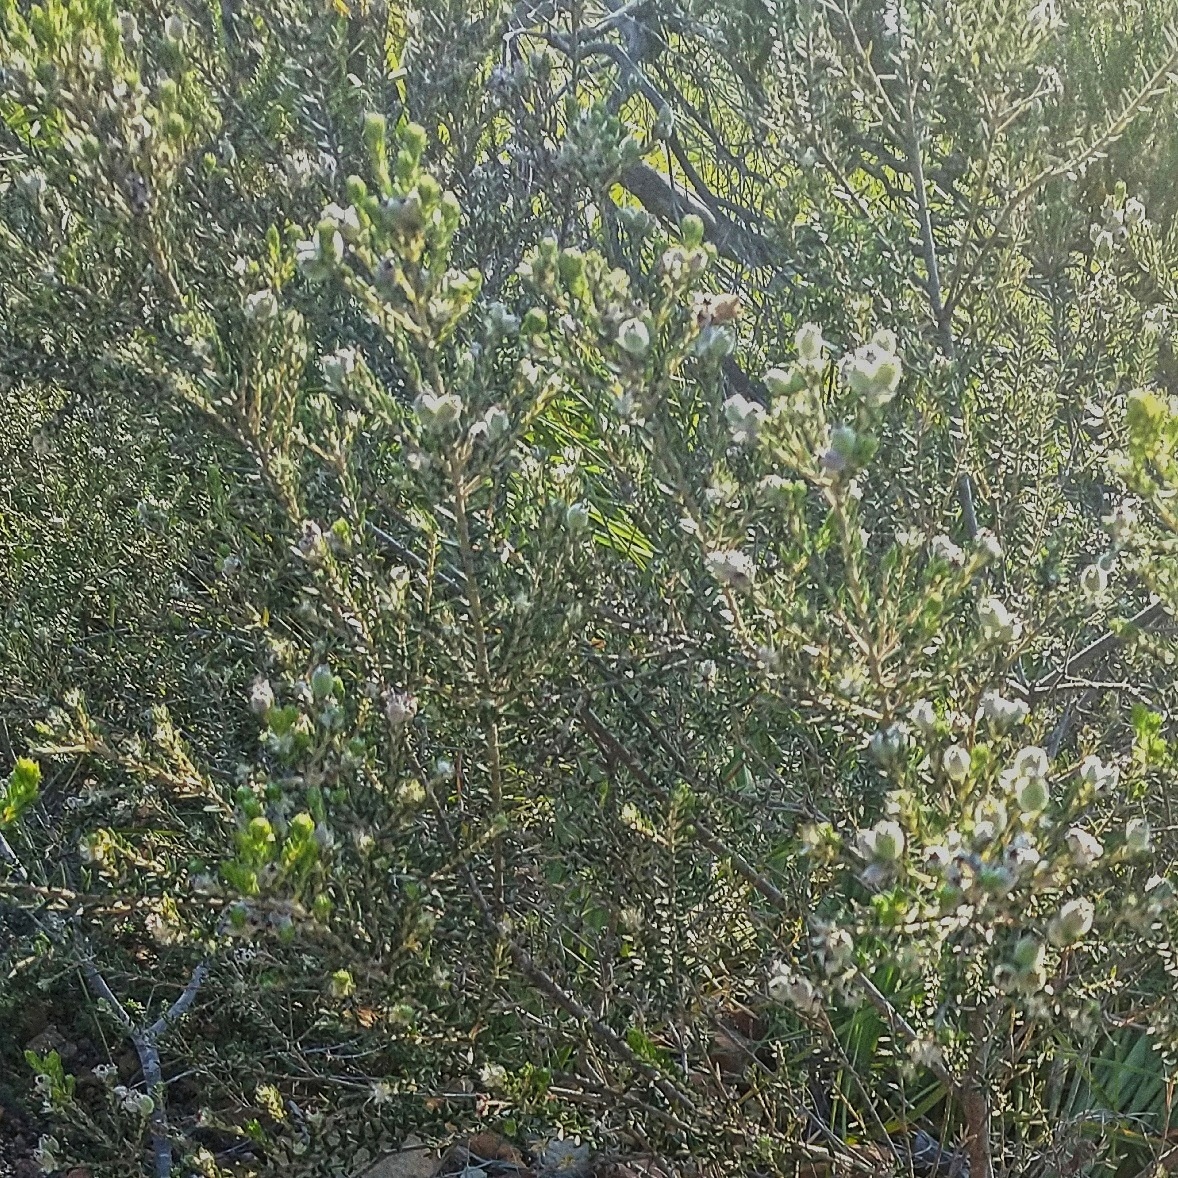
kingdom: Plantae
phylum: Tracheophyta
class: Magnoliopsida
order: Rosales
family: Rhamnaceae
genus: Phylica
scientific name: Phylica purpurea
